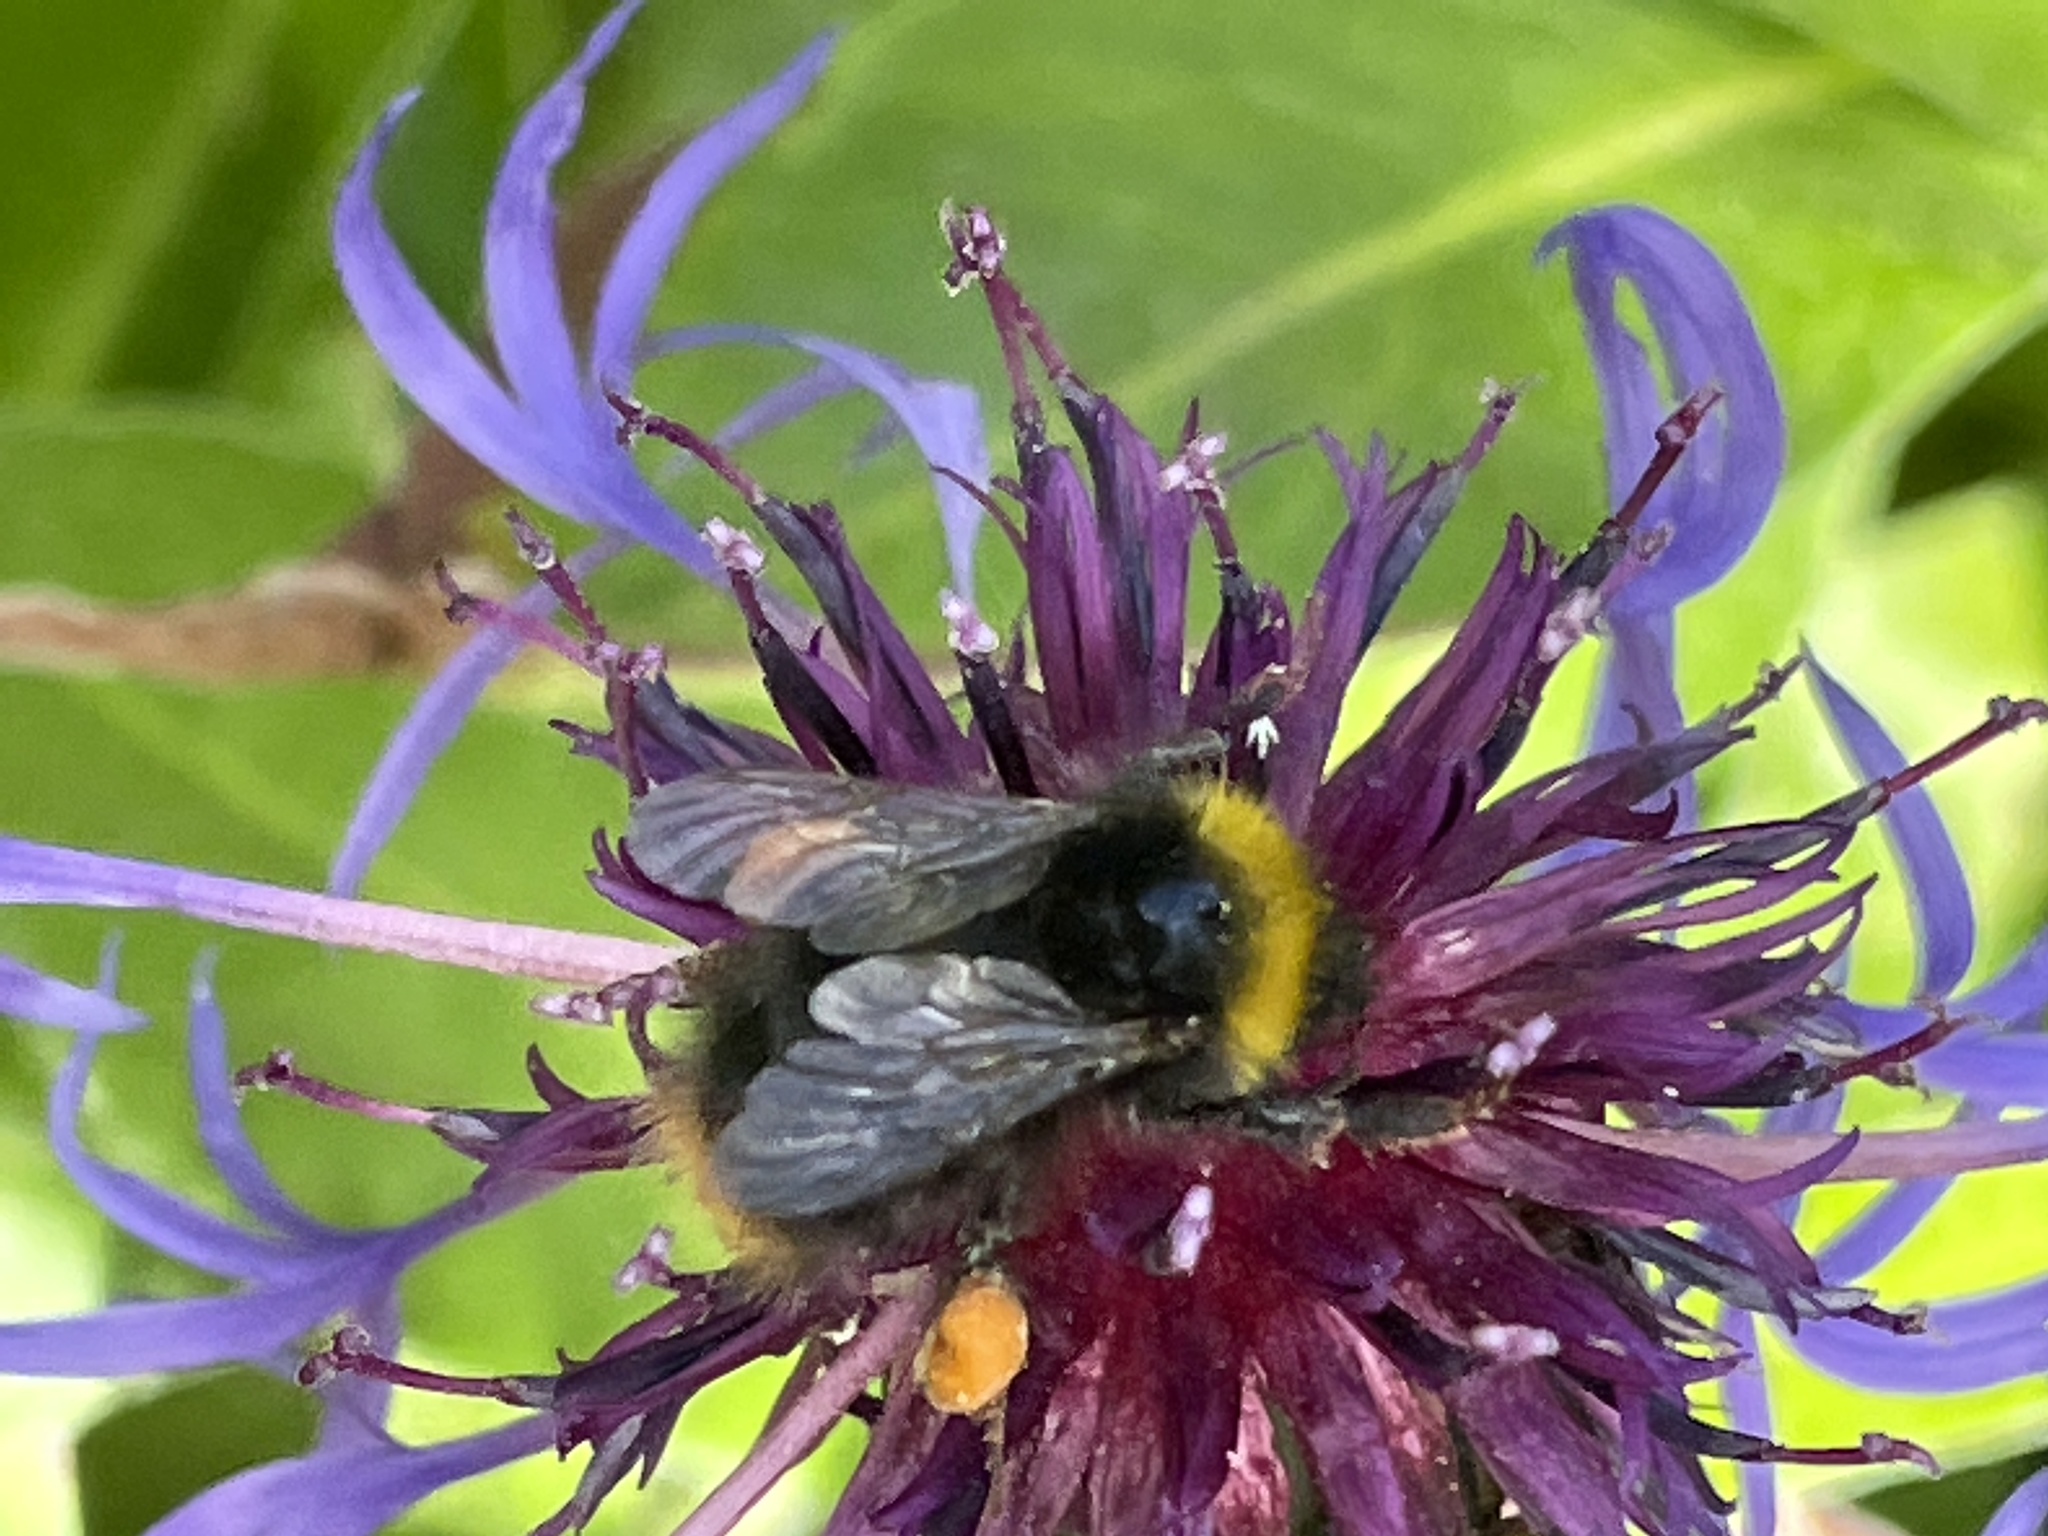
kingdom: Animalia
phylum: Arthropoda
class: Insecta
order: Hymenoptera
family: Apidae
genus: Bombus
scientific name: Bombus pratorum
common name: Early humble-bee
